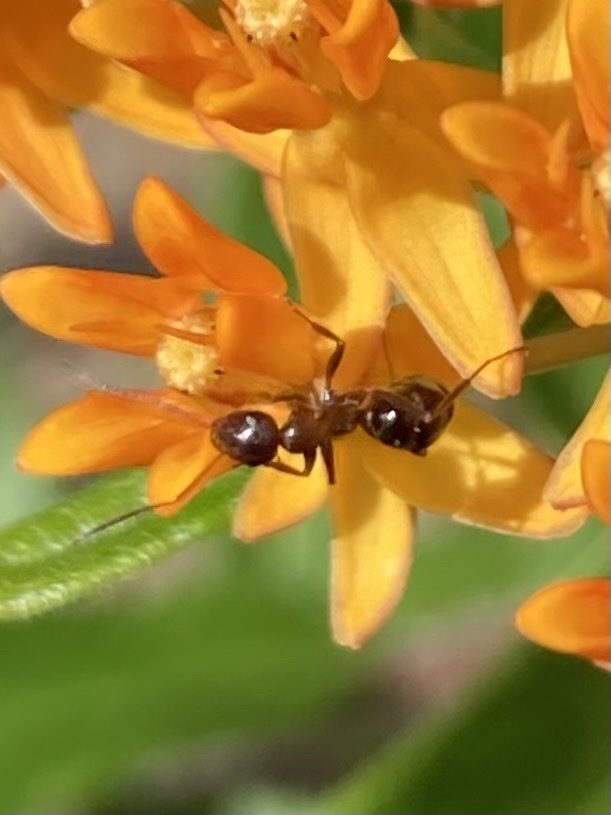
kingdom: Animalia
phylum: Arthropoda
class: Insecta
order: Hymenoptera
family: Formicidae
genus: Formica
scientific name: Formica
